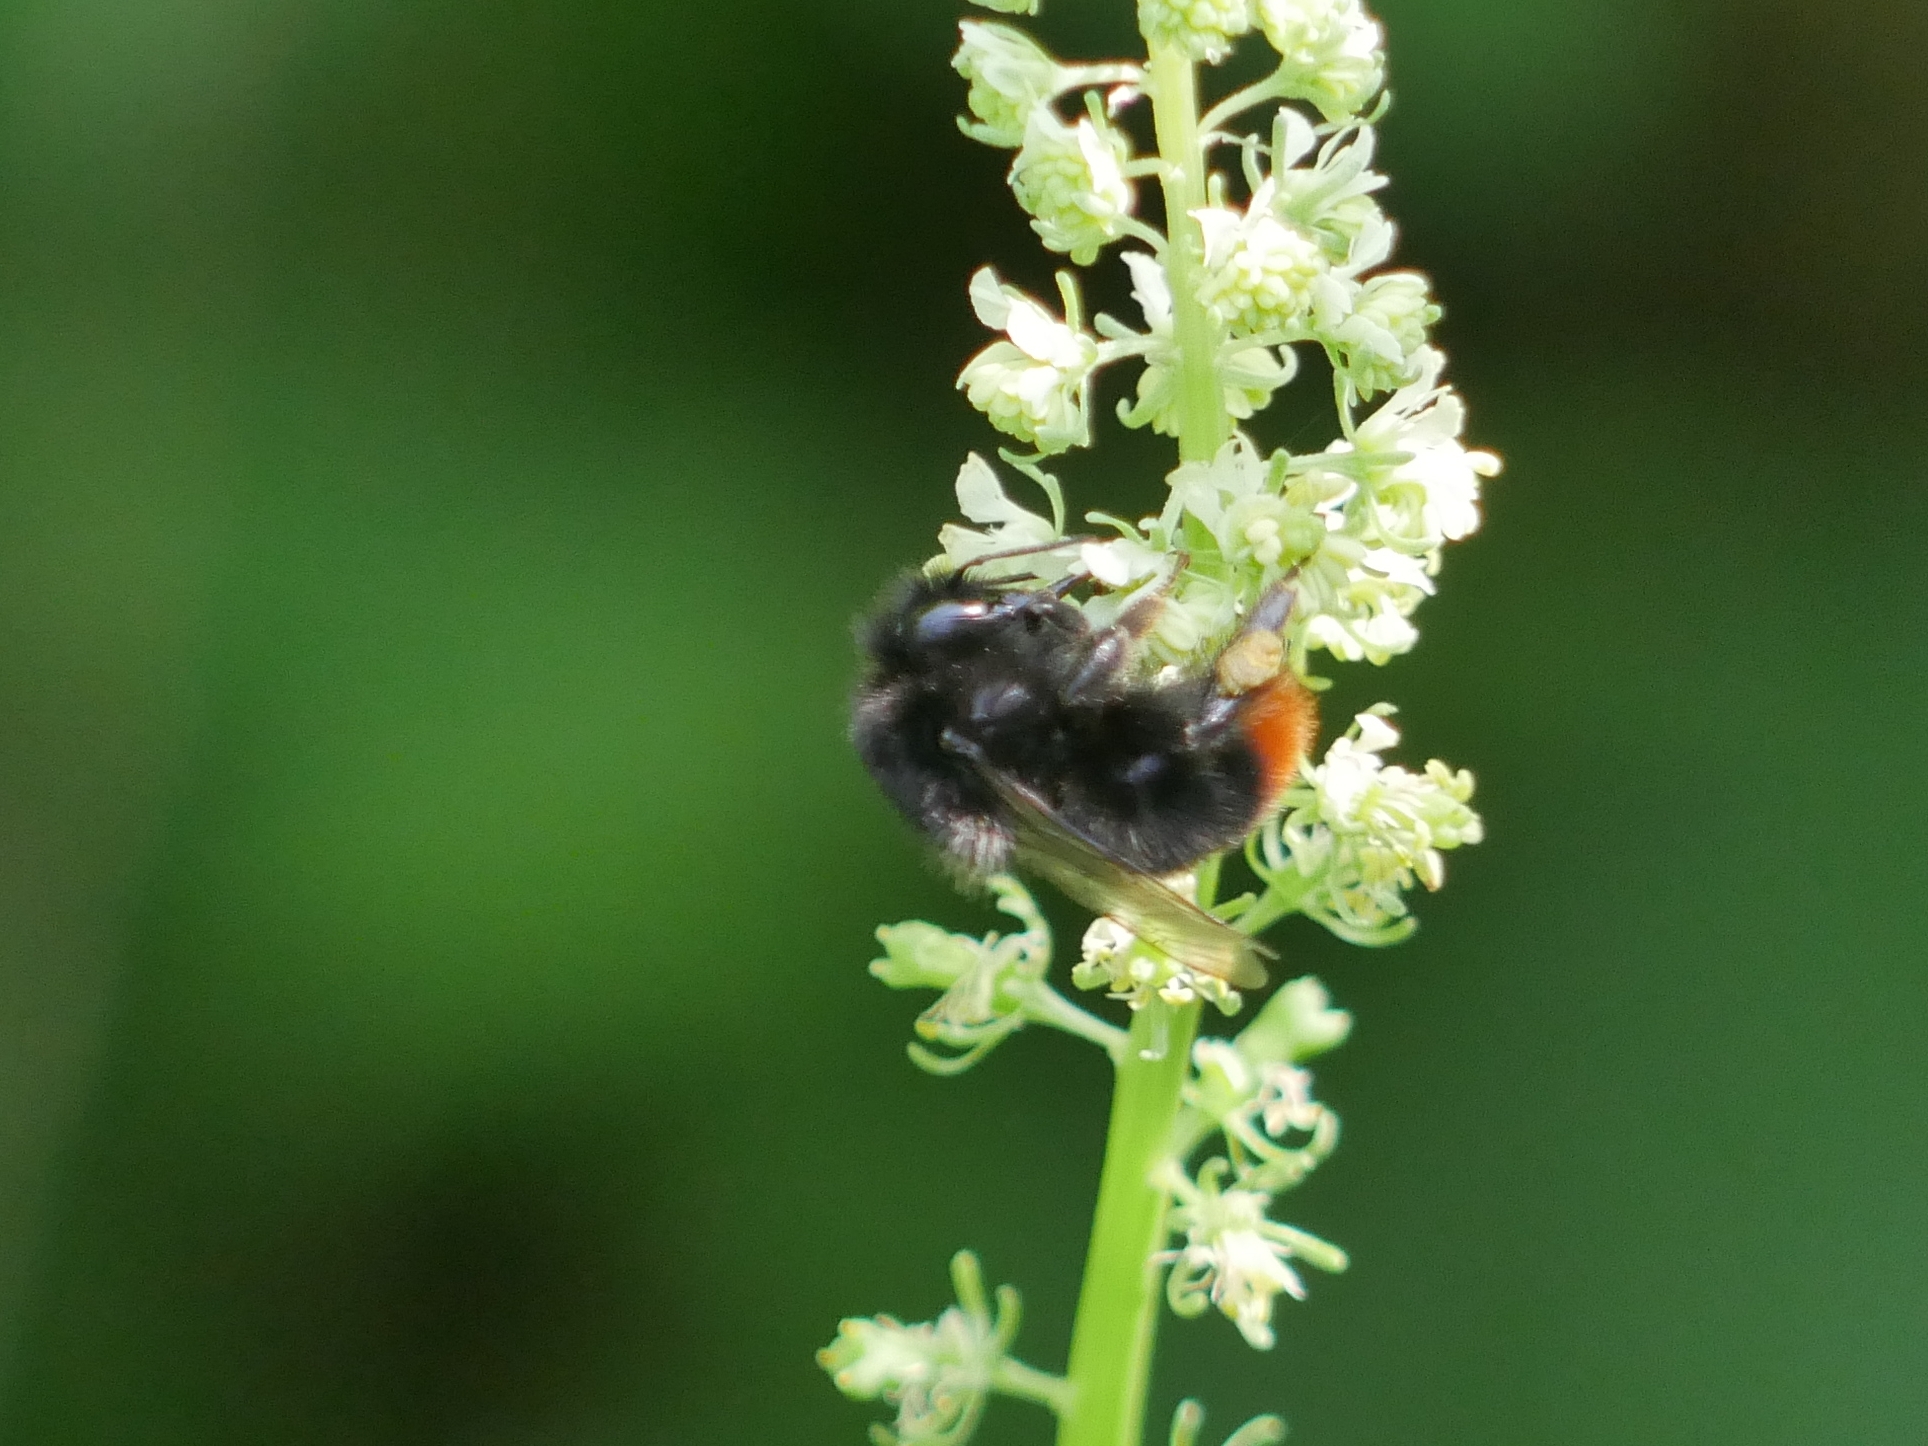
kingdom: Animalia
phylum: Arthropoda
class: Insecta
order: Hymenoptera
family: Apidae
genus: Bombus
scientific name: Bombus lapidarius
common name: Large red-tailed humble-bee
